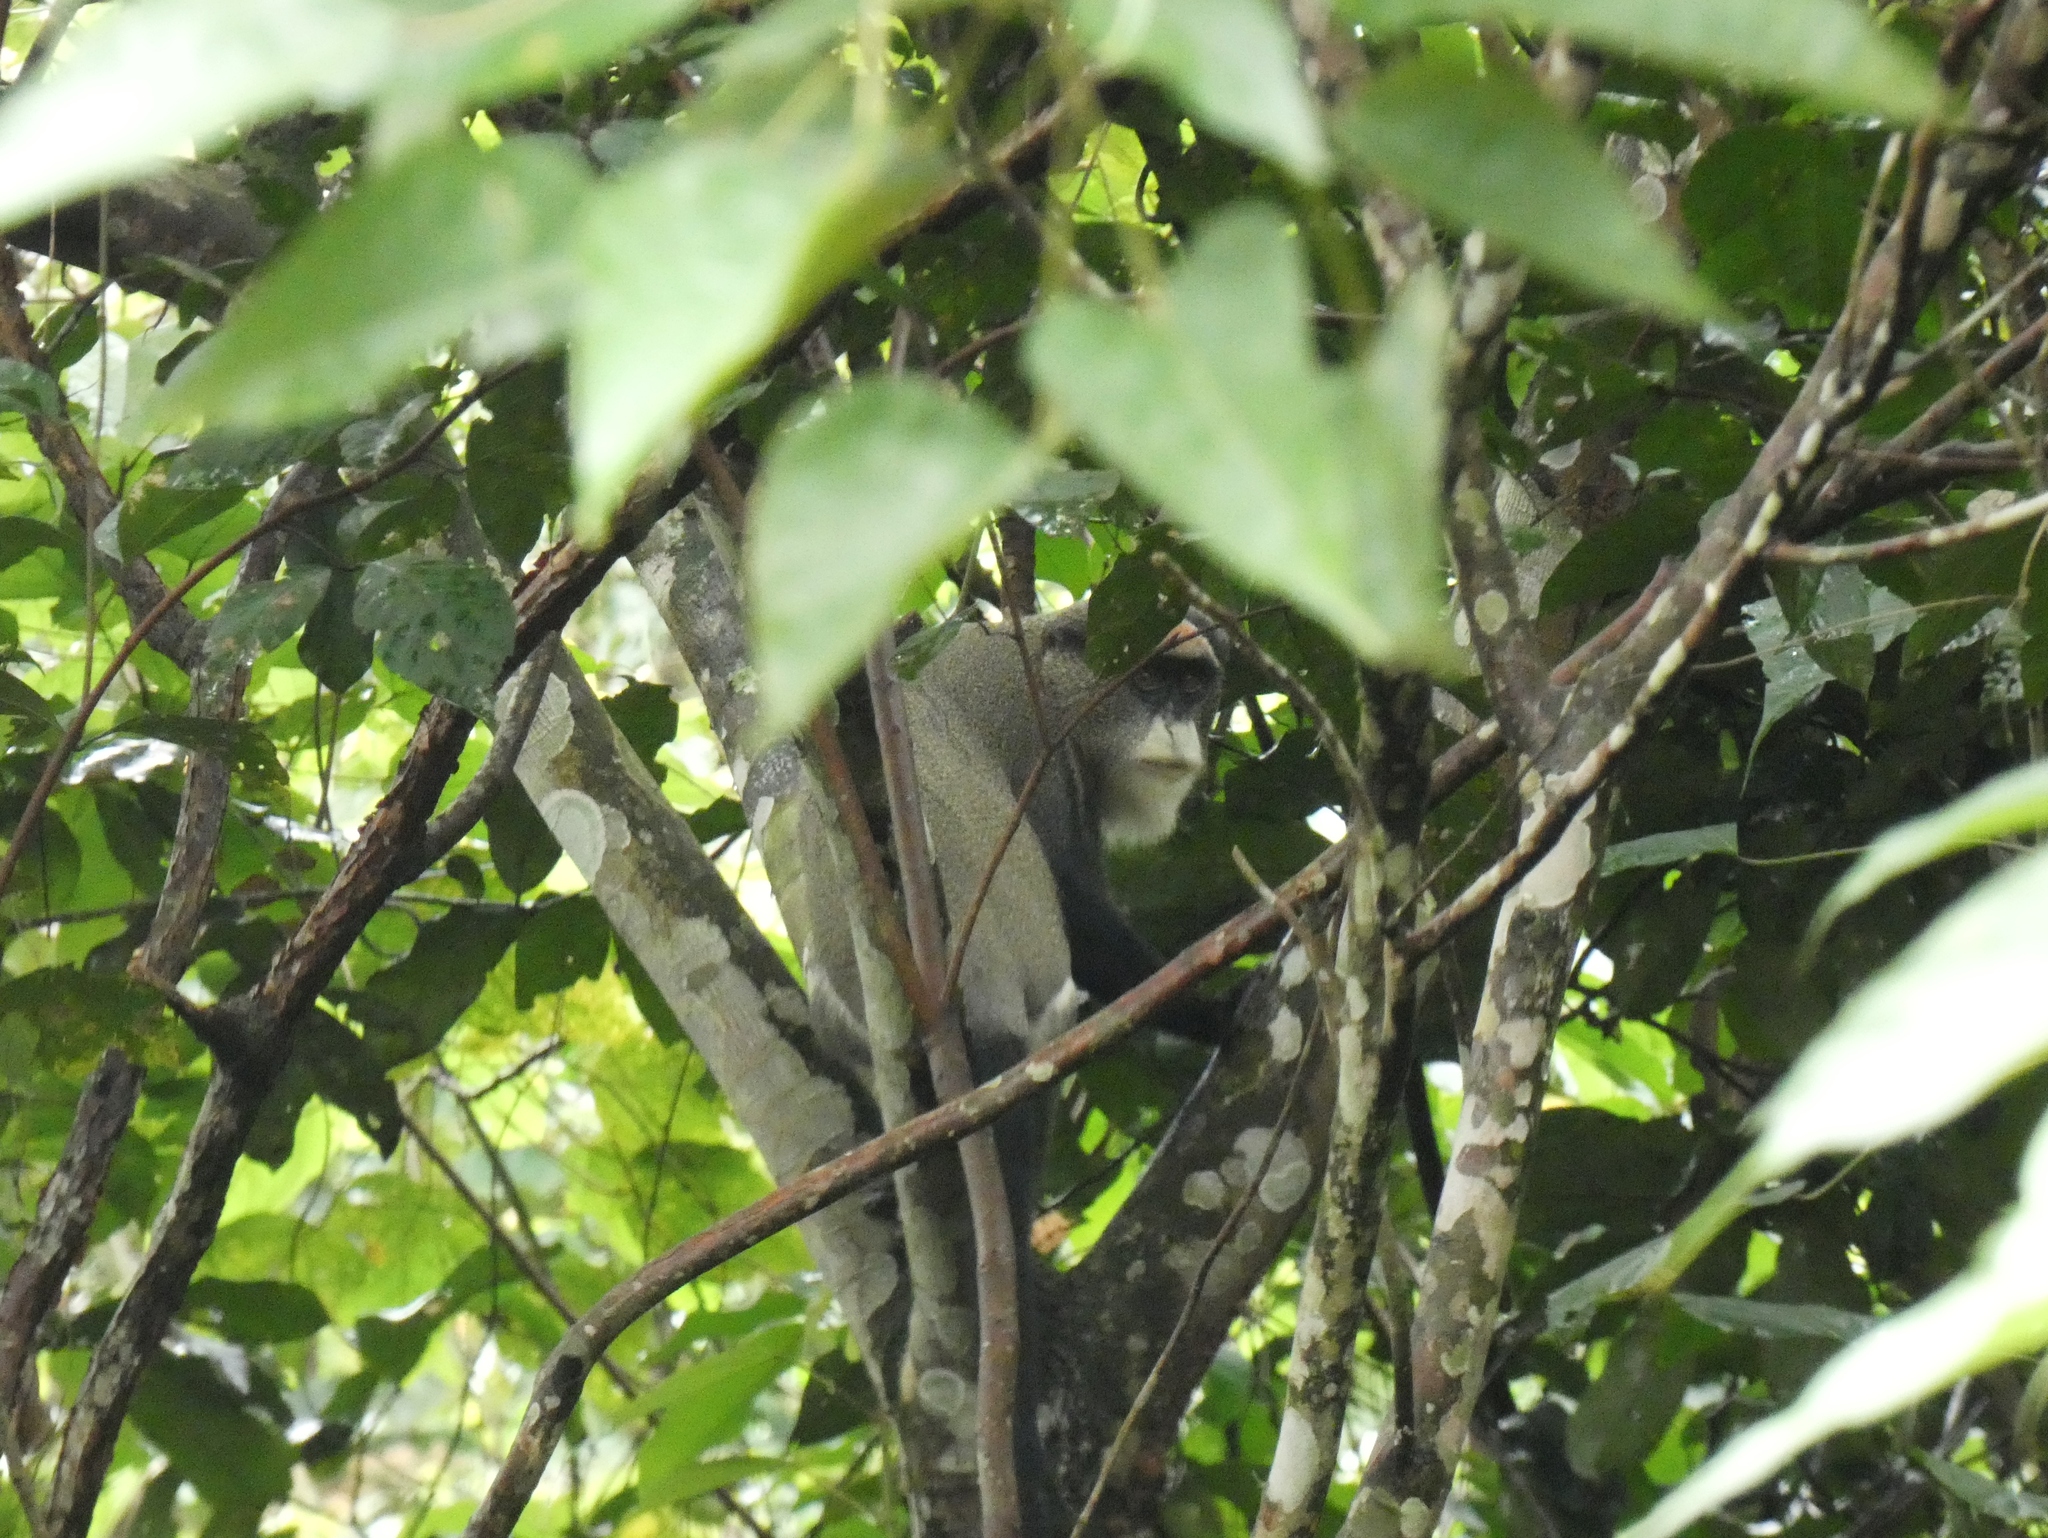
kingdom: Animalia
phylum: Chordata
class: Mammalia
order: Primates
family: Cercopithecidae
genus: Cercopithecus
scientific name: Cercopithecus neglectus
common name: De brazza's guenon
